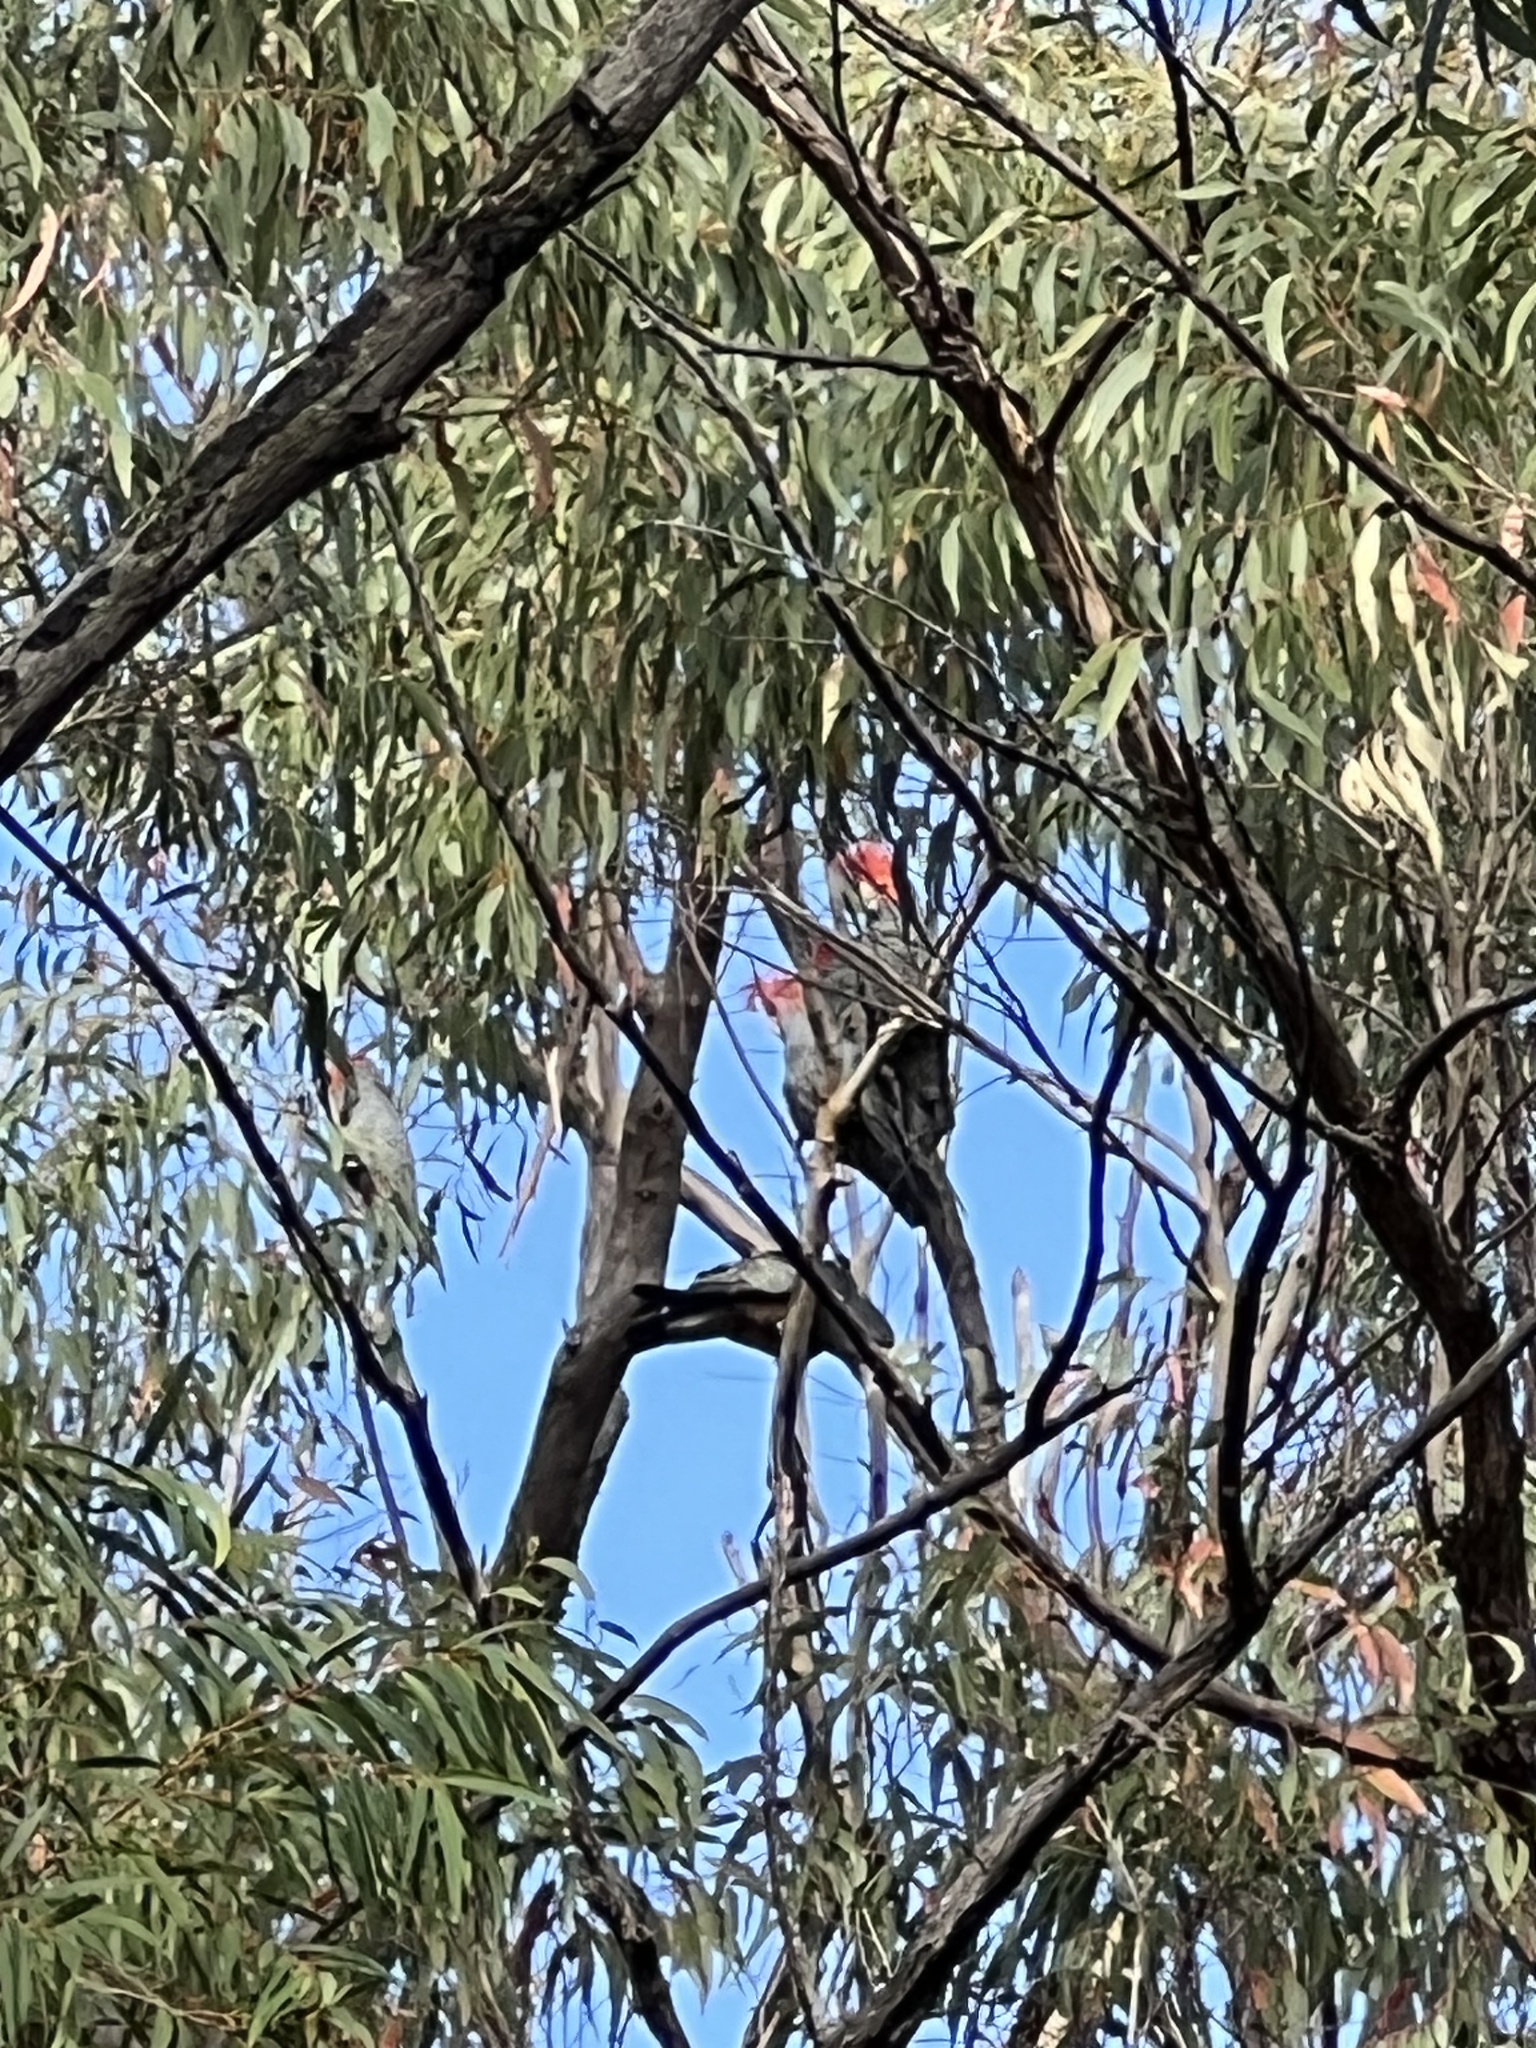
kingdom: Animalia
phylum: Chordata
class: Aves
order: Psittaciformes
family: Psittacidae
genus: Callocephalon
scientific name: Callocephalon fimbriatum
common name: Gang-gang cockatoo
